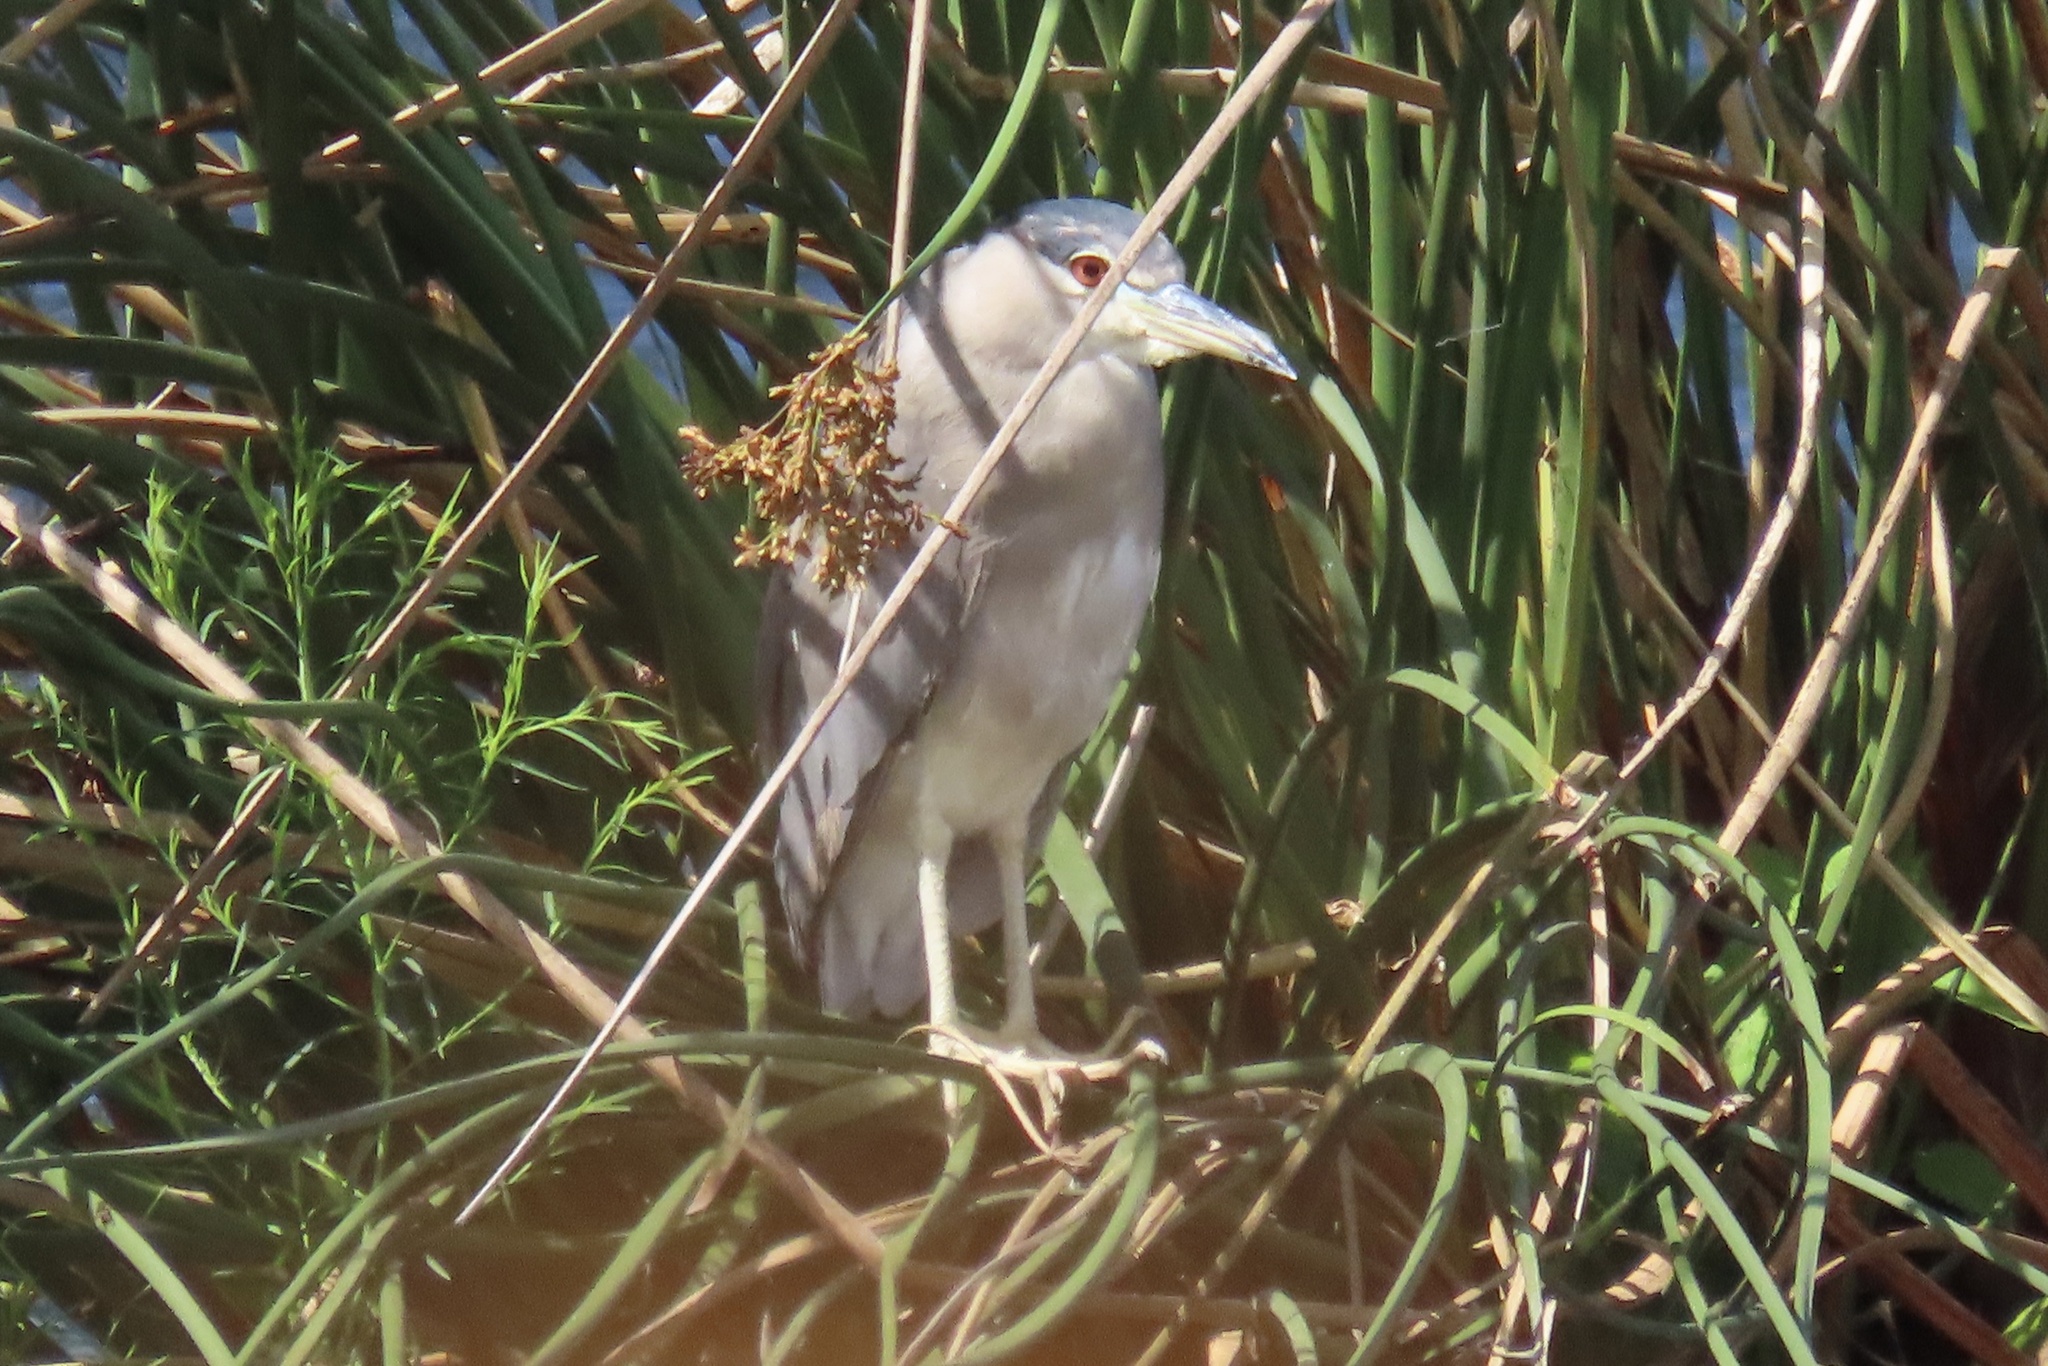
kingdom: Animalia
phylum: Chordata
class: Aves
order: Pelecaniformes
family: Ardeidae
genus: Nycticorax
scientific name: Nycticorax nycticorax
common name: Black-crowned night heron
